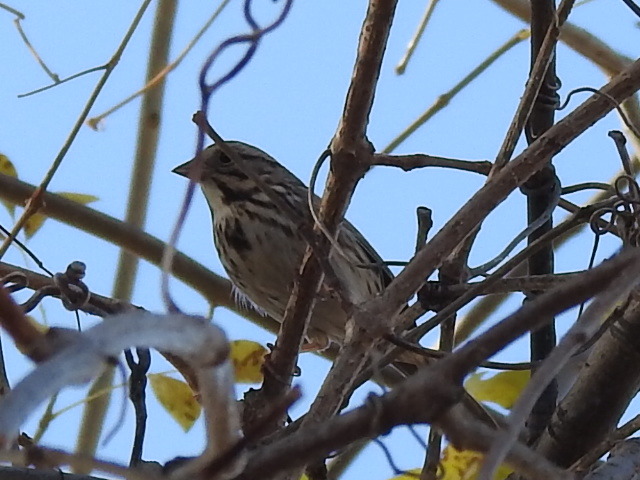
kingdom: Animalia
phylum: Chordata
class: Aves
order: Passeriformes
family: Passerellidae
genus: Melospiza
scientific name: Melospiza melodia
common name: Song sparrow
